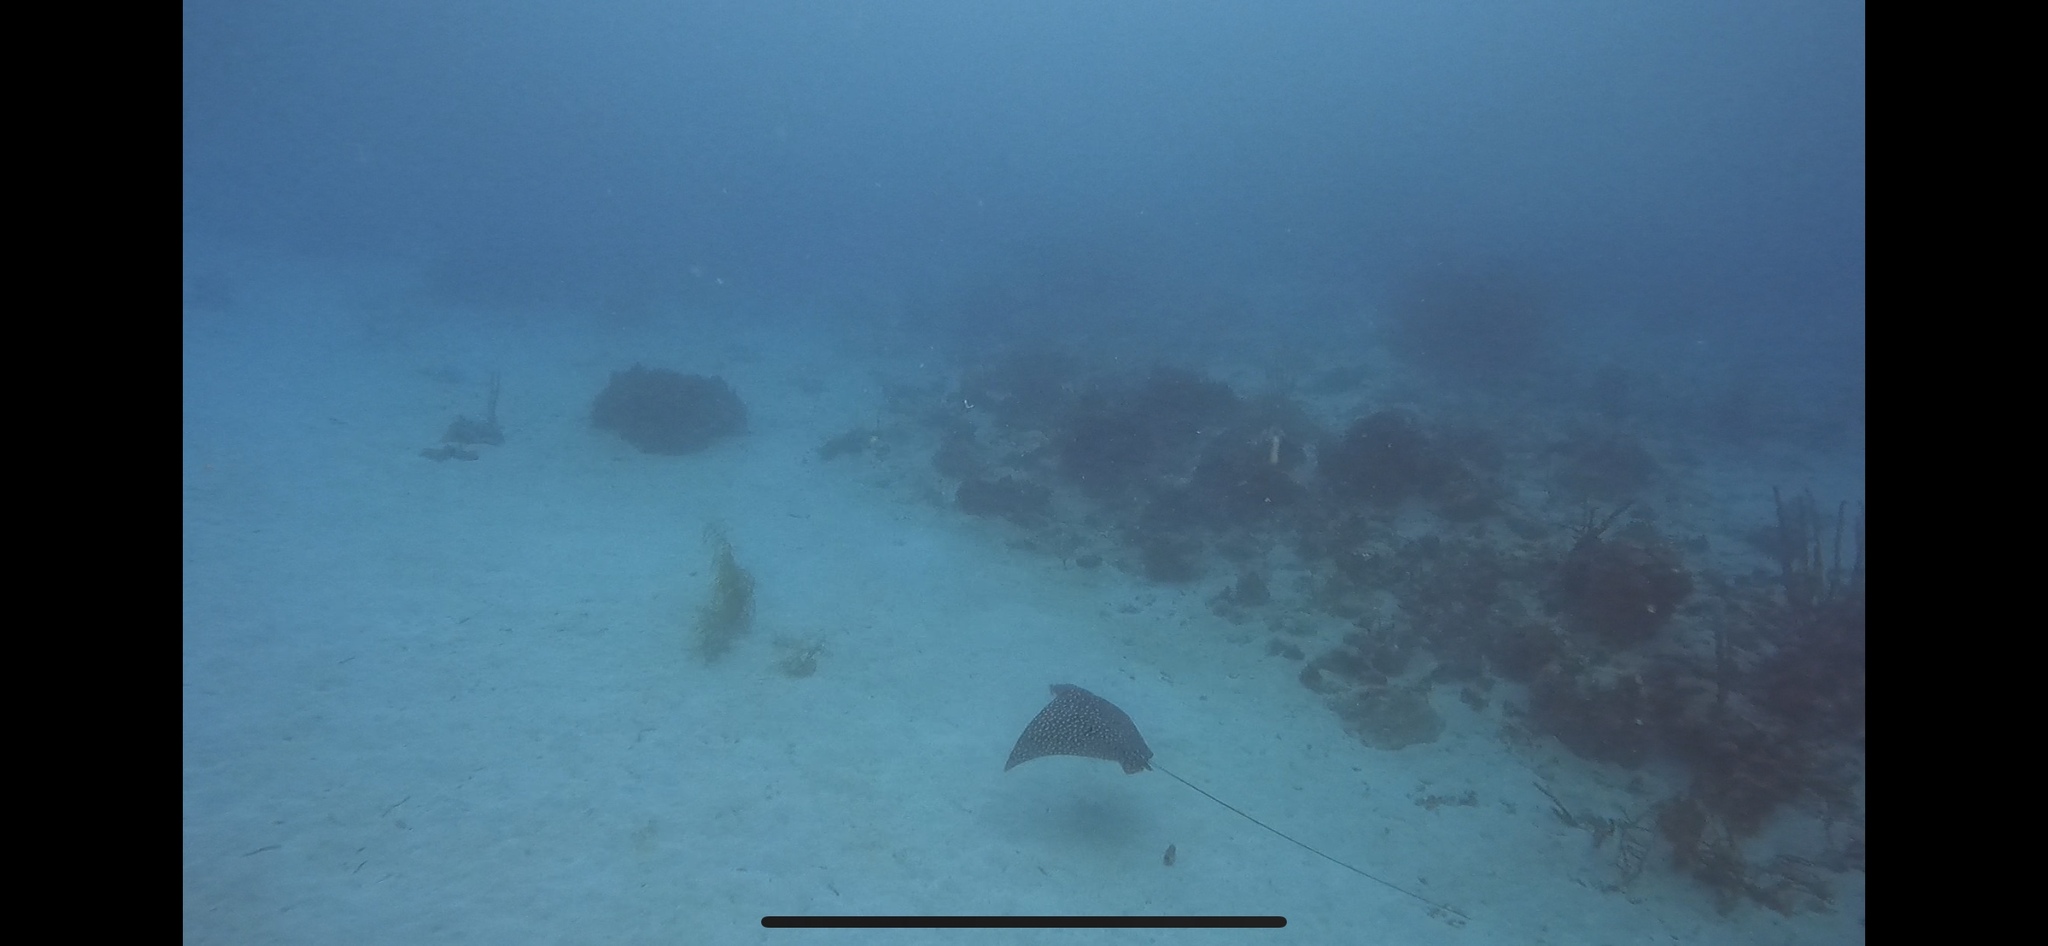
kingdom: Animalia
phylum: Chordata
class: Elasmobranchii
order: Myliobatiformes
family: Myliobatidae
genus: Aetobatus
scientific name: Aetobatus narinari
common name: Spotted eagle ray
